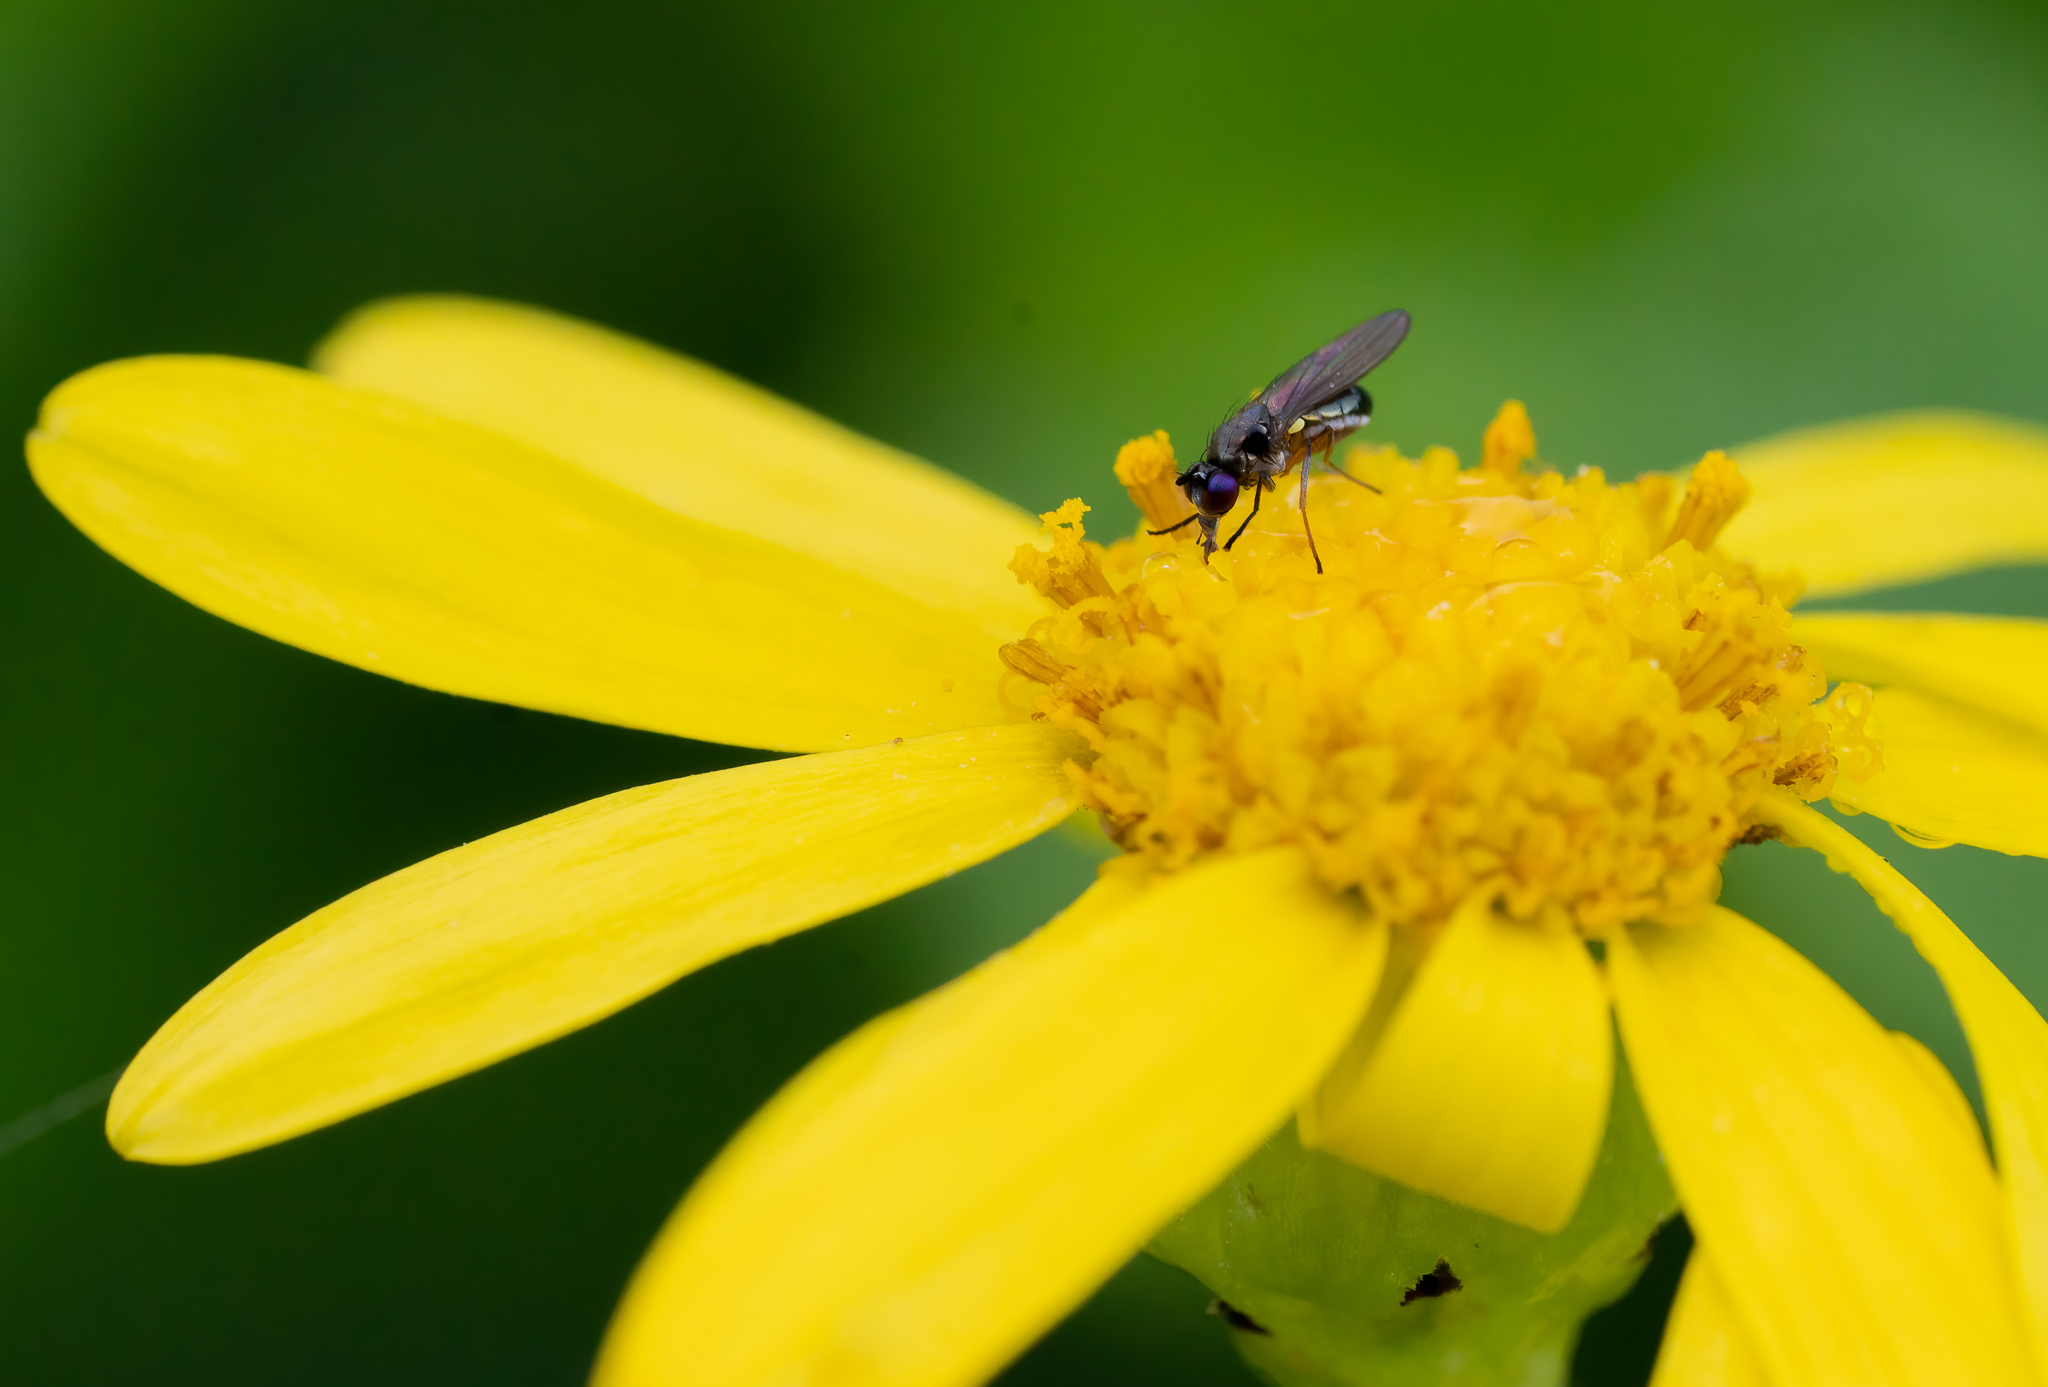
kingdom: Animalia
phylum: Arthropoda
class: Insecta
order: Diptera
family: Ephydridae
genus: Hydrellia
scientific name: Hydrellia tritici
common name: Shore fly
